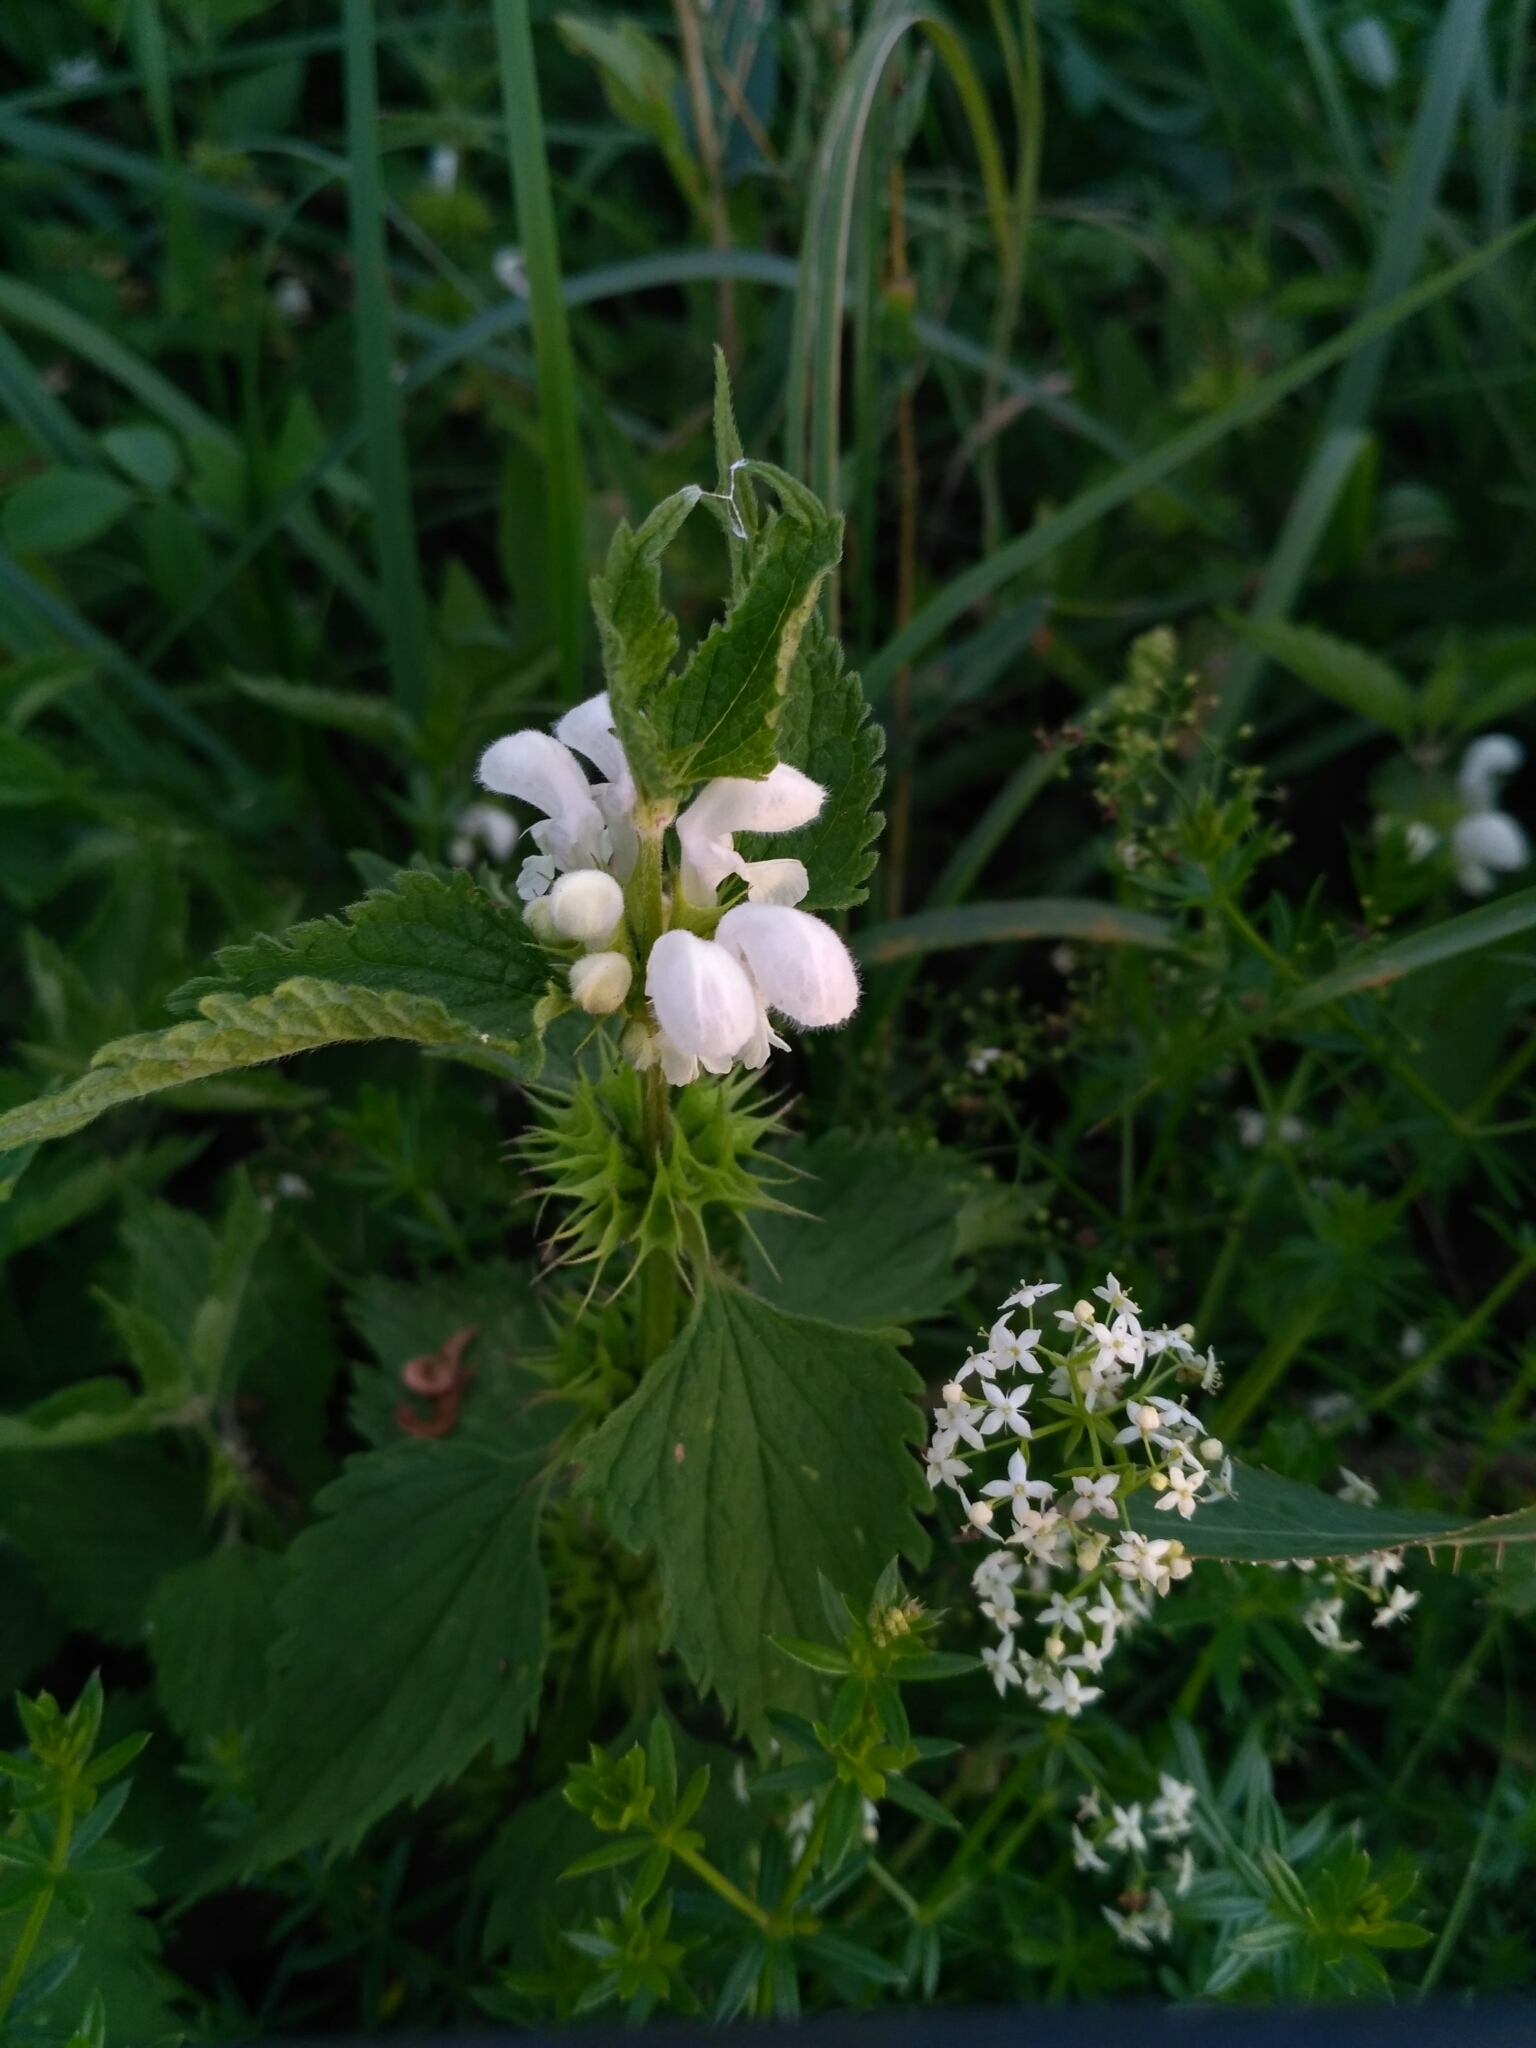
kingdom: Plantae
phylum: Tracheophyta
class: Magnoliopsida
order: Lamiales
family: Lamiaceae
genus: Lamium
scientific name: Lamium album
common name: White dead-nettle
